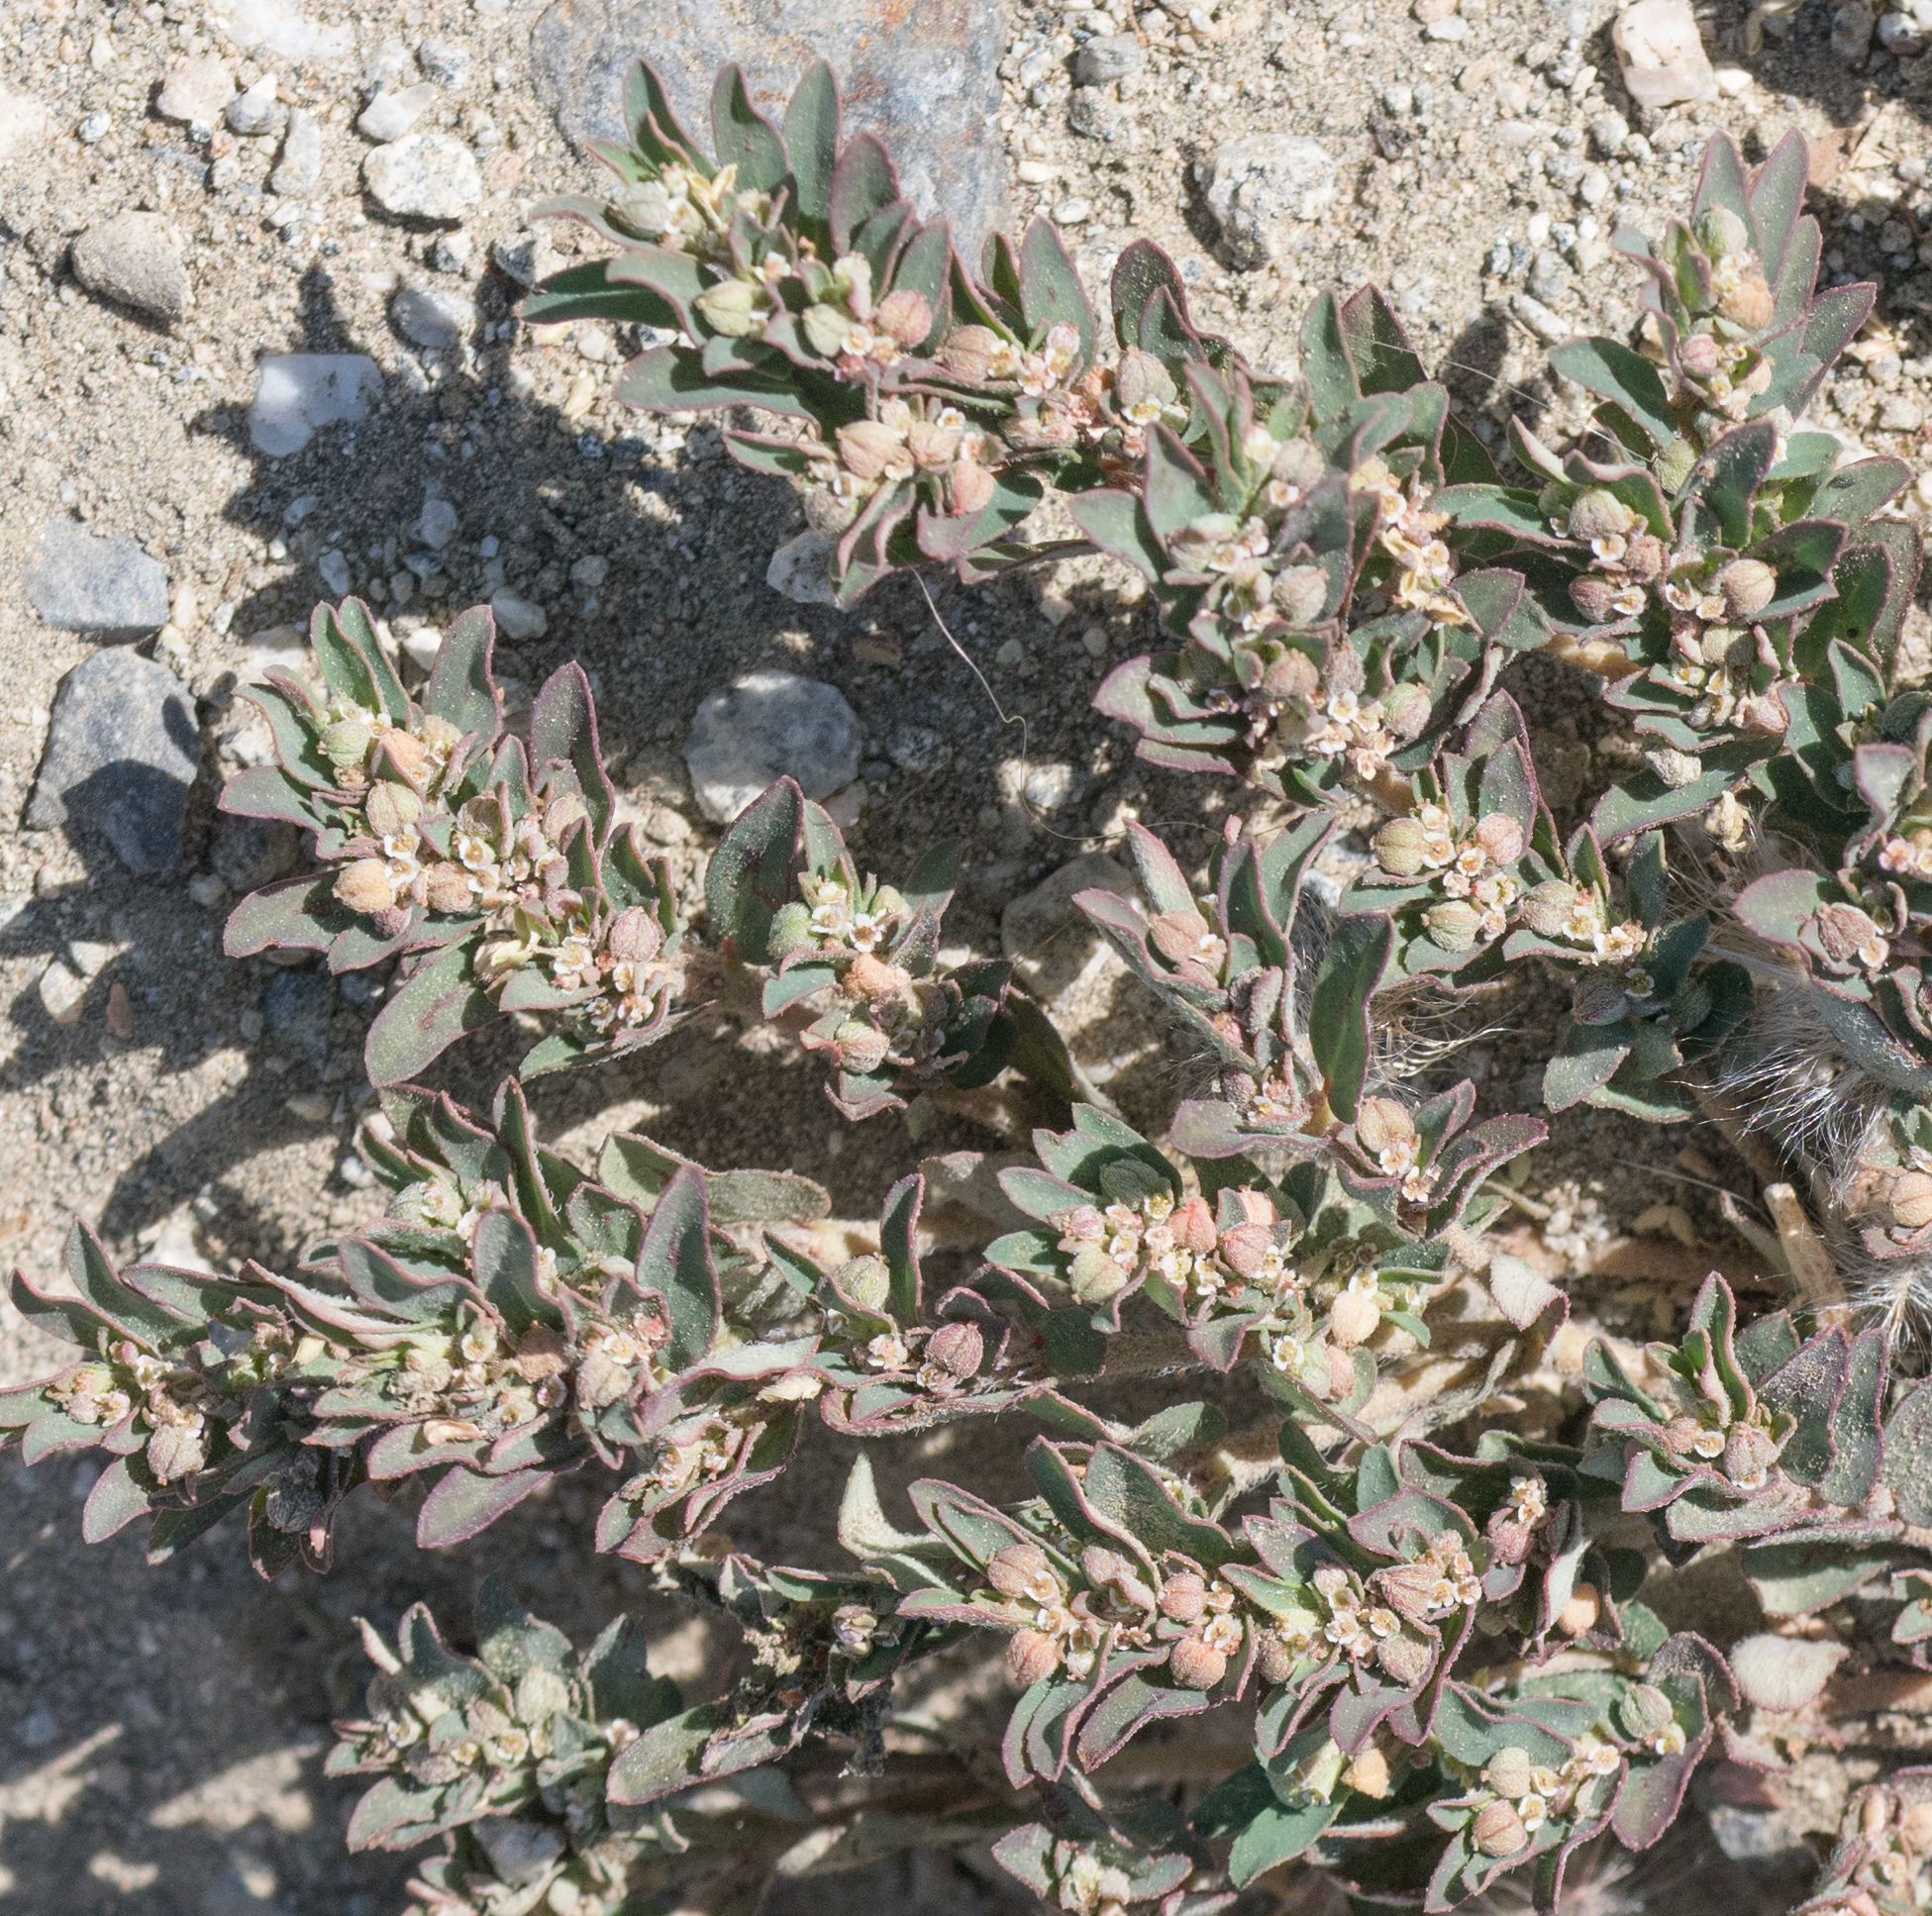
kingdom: Plantae
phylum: Tracheophyta
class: Magnoliopsida
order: Malpighiales
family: Euphorbiaceae
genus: Euphorbia
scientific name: Euphorbia maculata
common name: Spotted spurge
